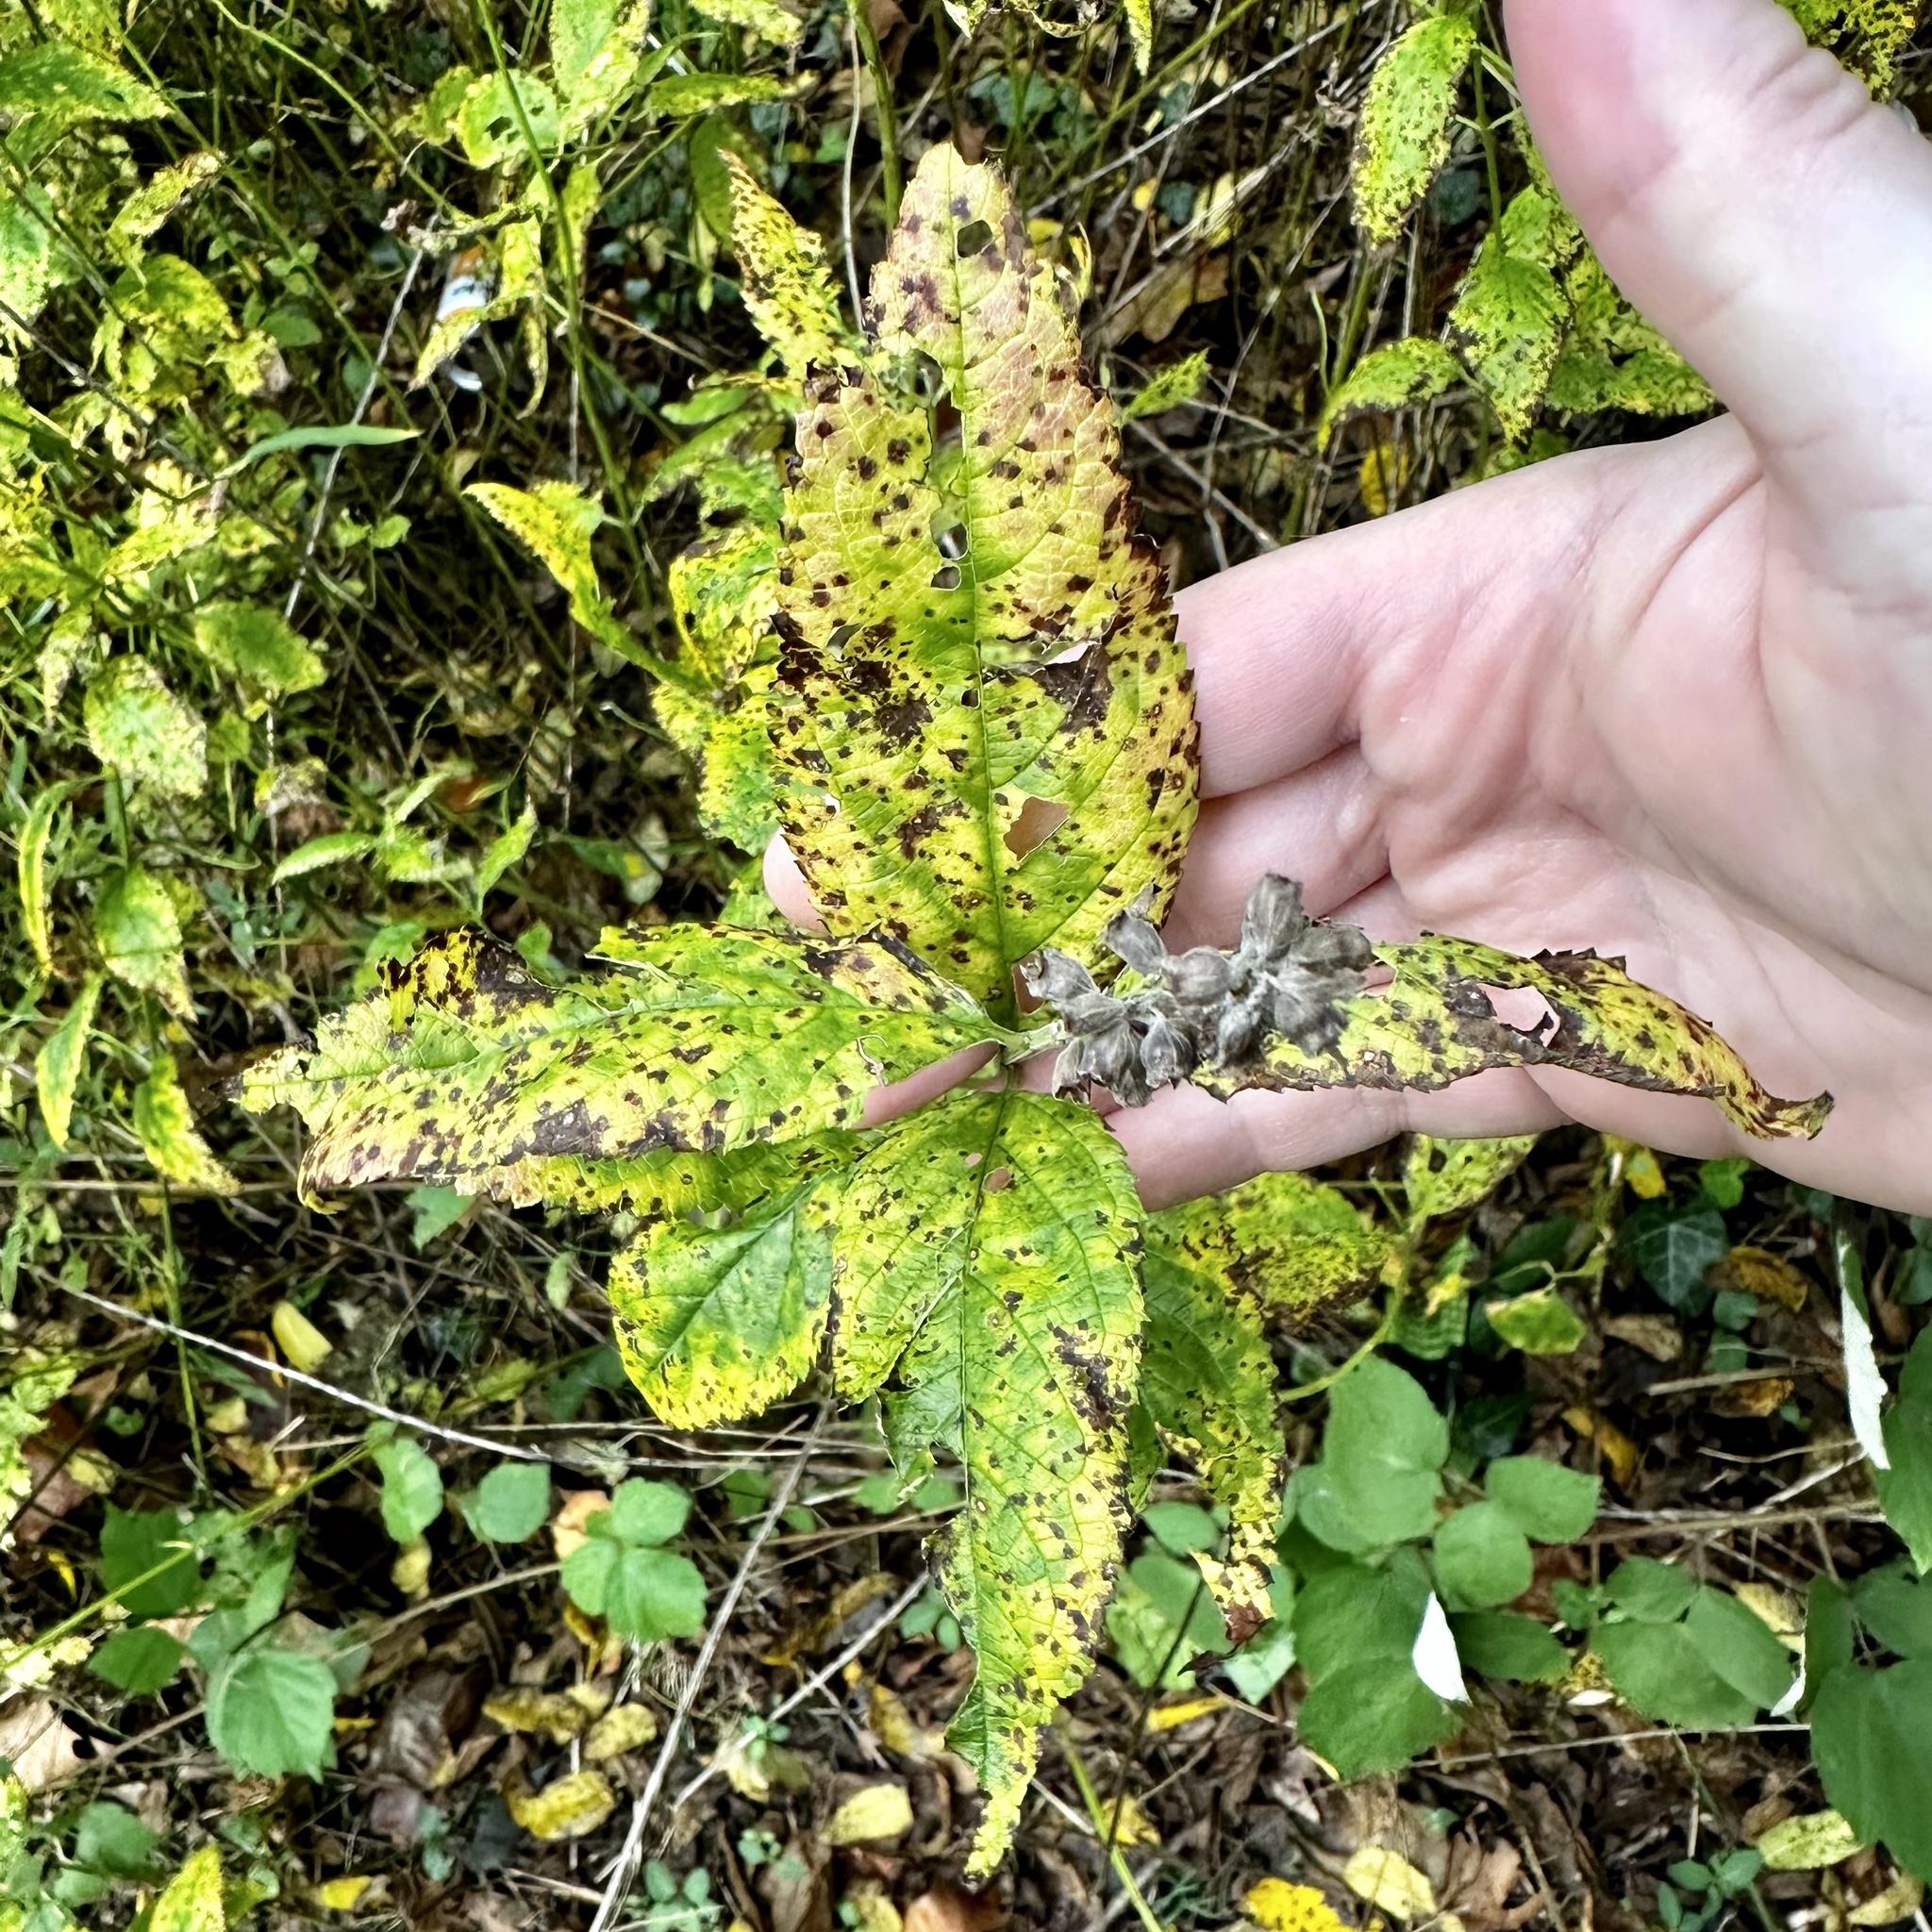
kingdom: Plantae
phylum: Tracheophyta
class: Magnoliopsida
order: Lamiales
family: Lamiaceae
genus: Teucrium
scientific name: Teucrium canadense
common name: American germander
